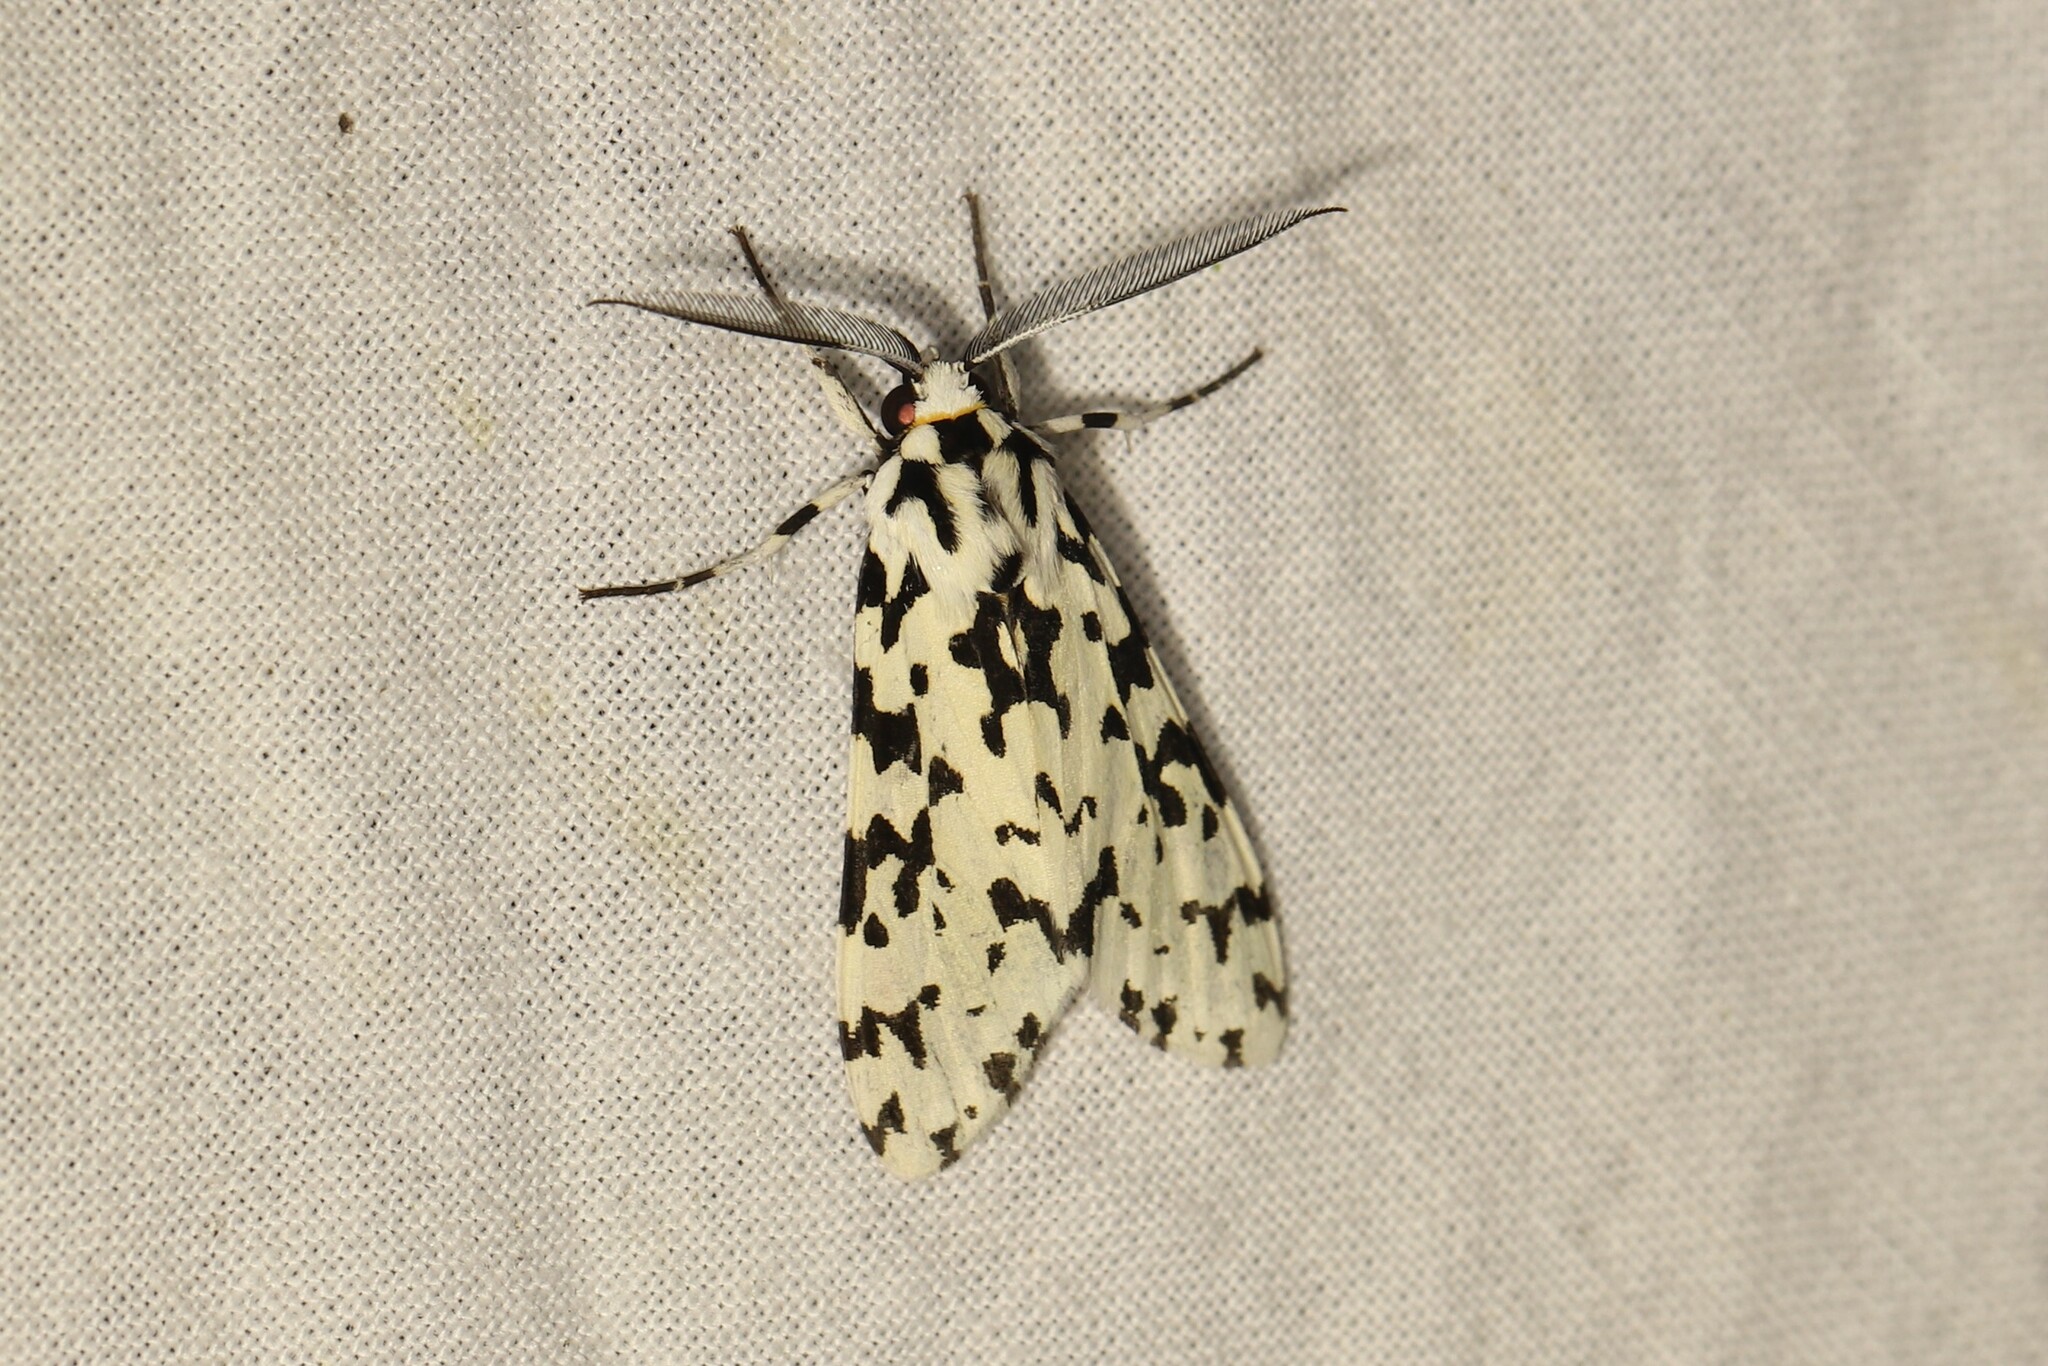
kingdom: Animalia
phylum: Arthropoda
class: Insecta
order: Lepidoptera
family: Erebidae
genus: Eucereon
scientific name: Eucereon tigrata
